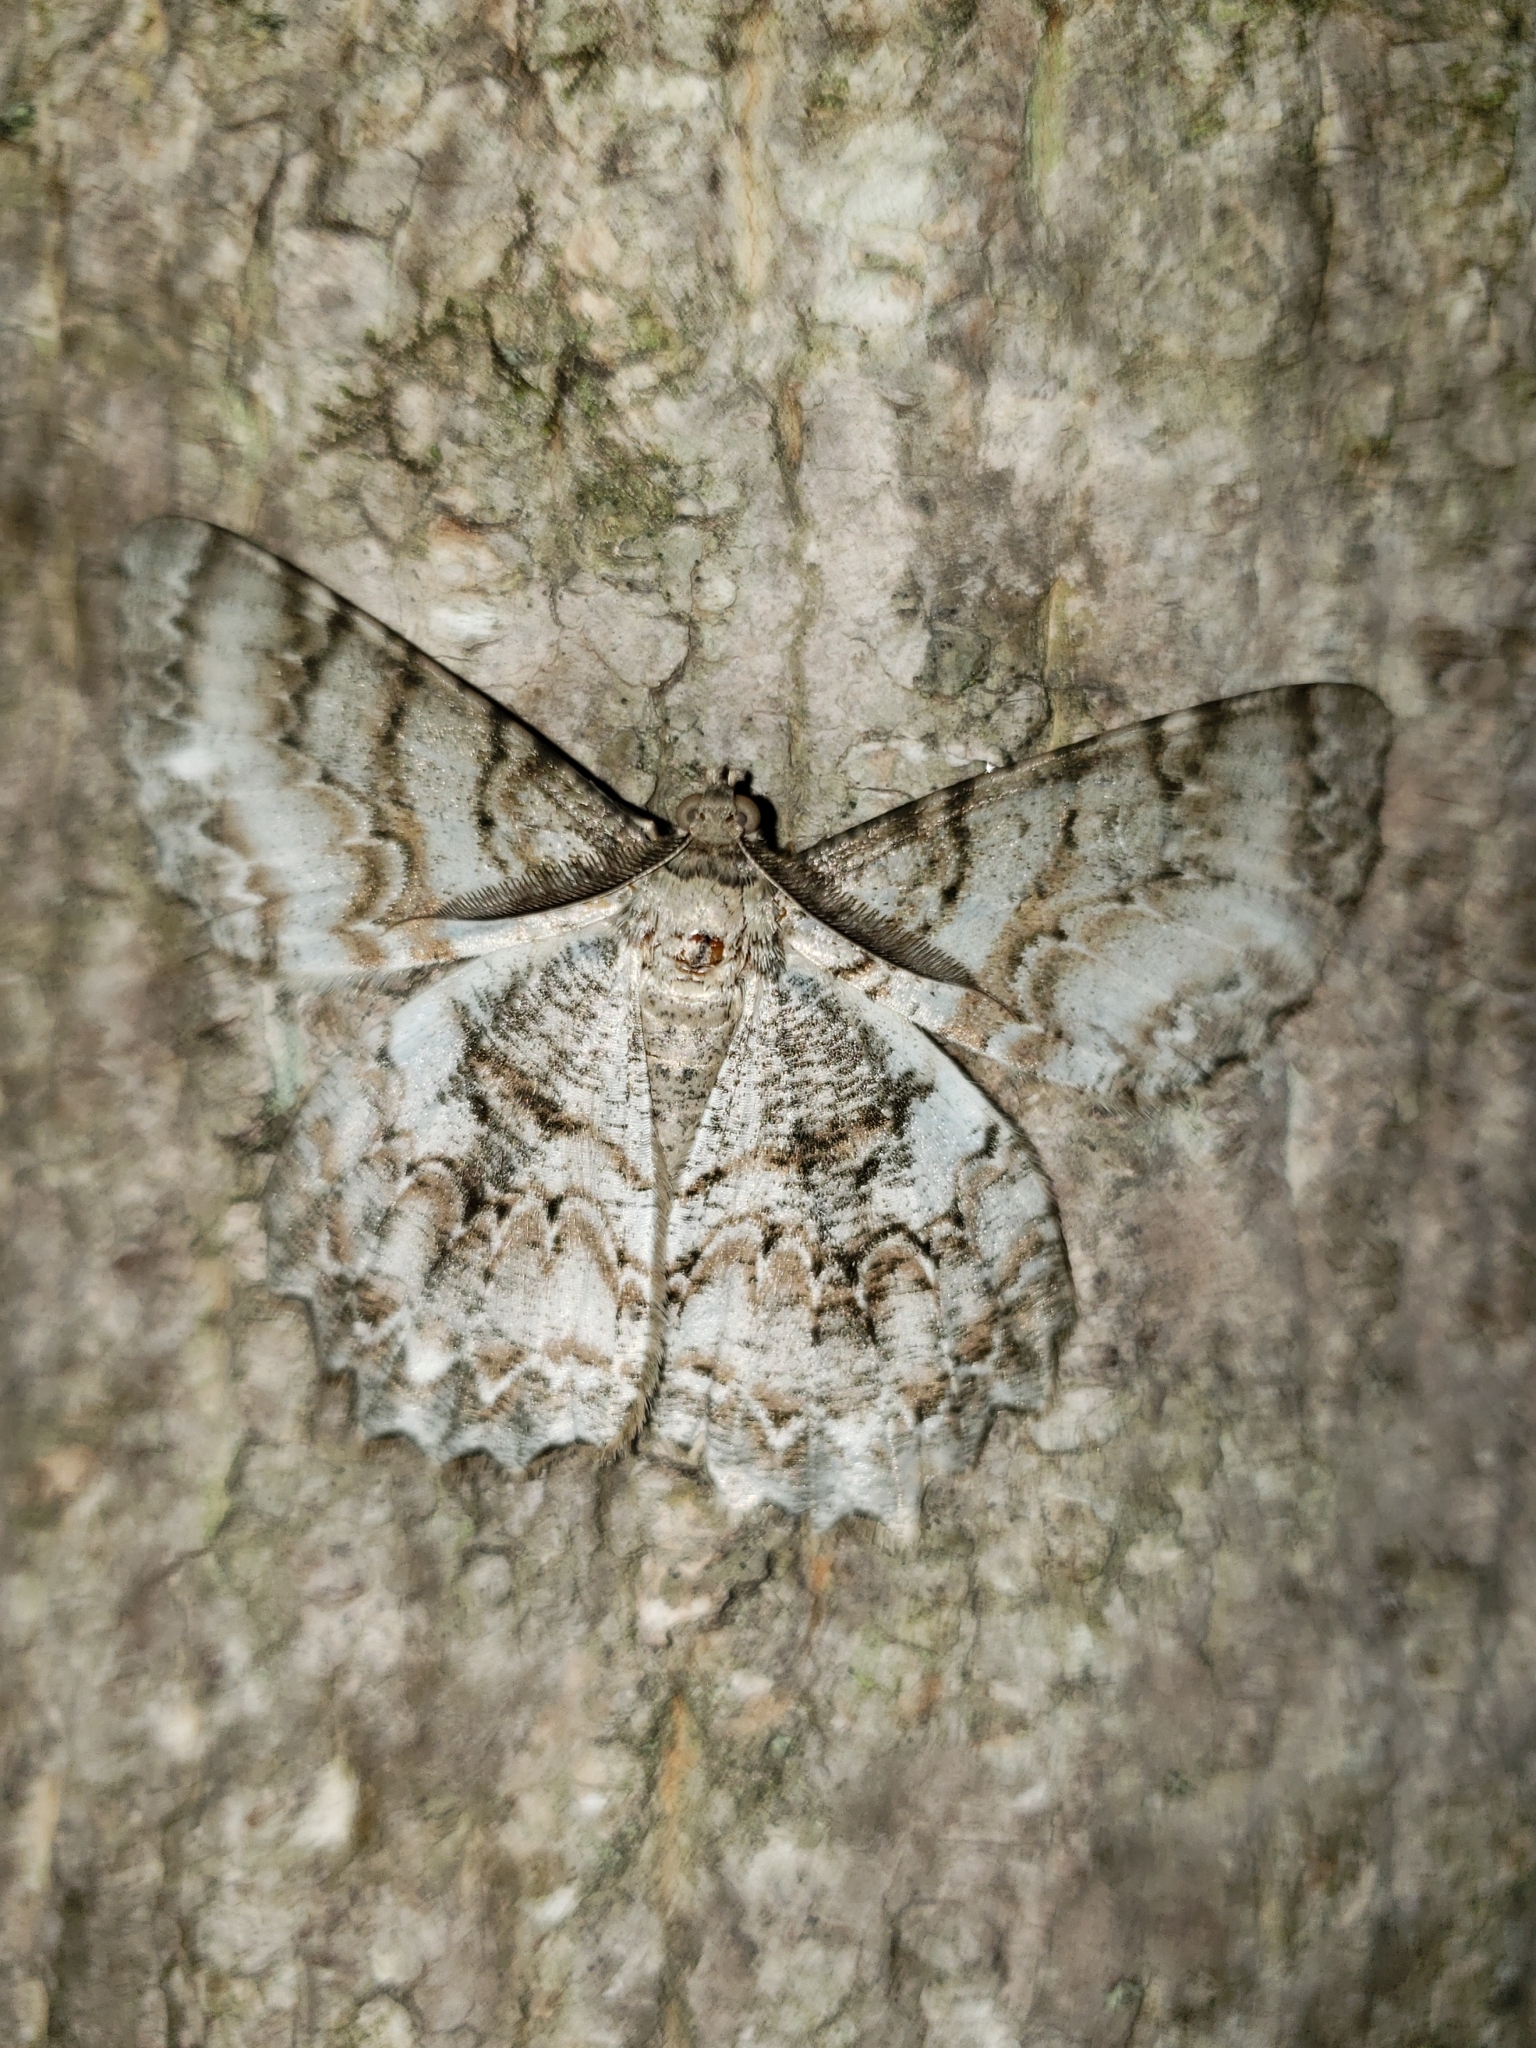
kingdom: Animalia
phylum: Arthropoda
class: Insecta
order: Lepidoptera
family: Geometridae
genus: Epimecis
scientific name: Epimecis hortaria
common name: Tulip-tree beauty
